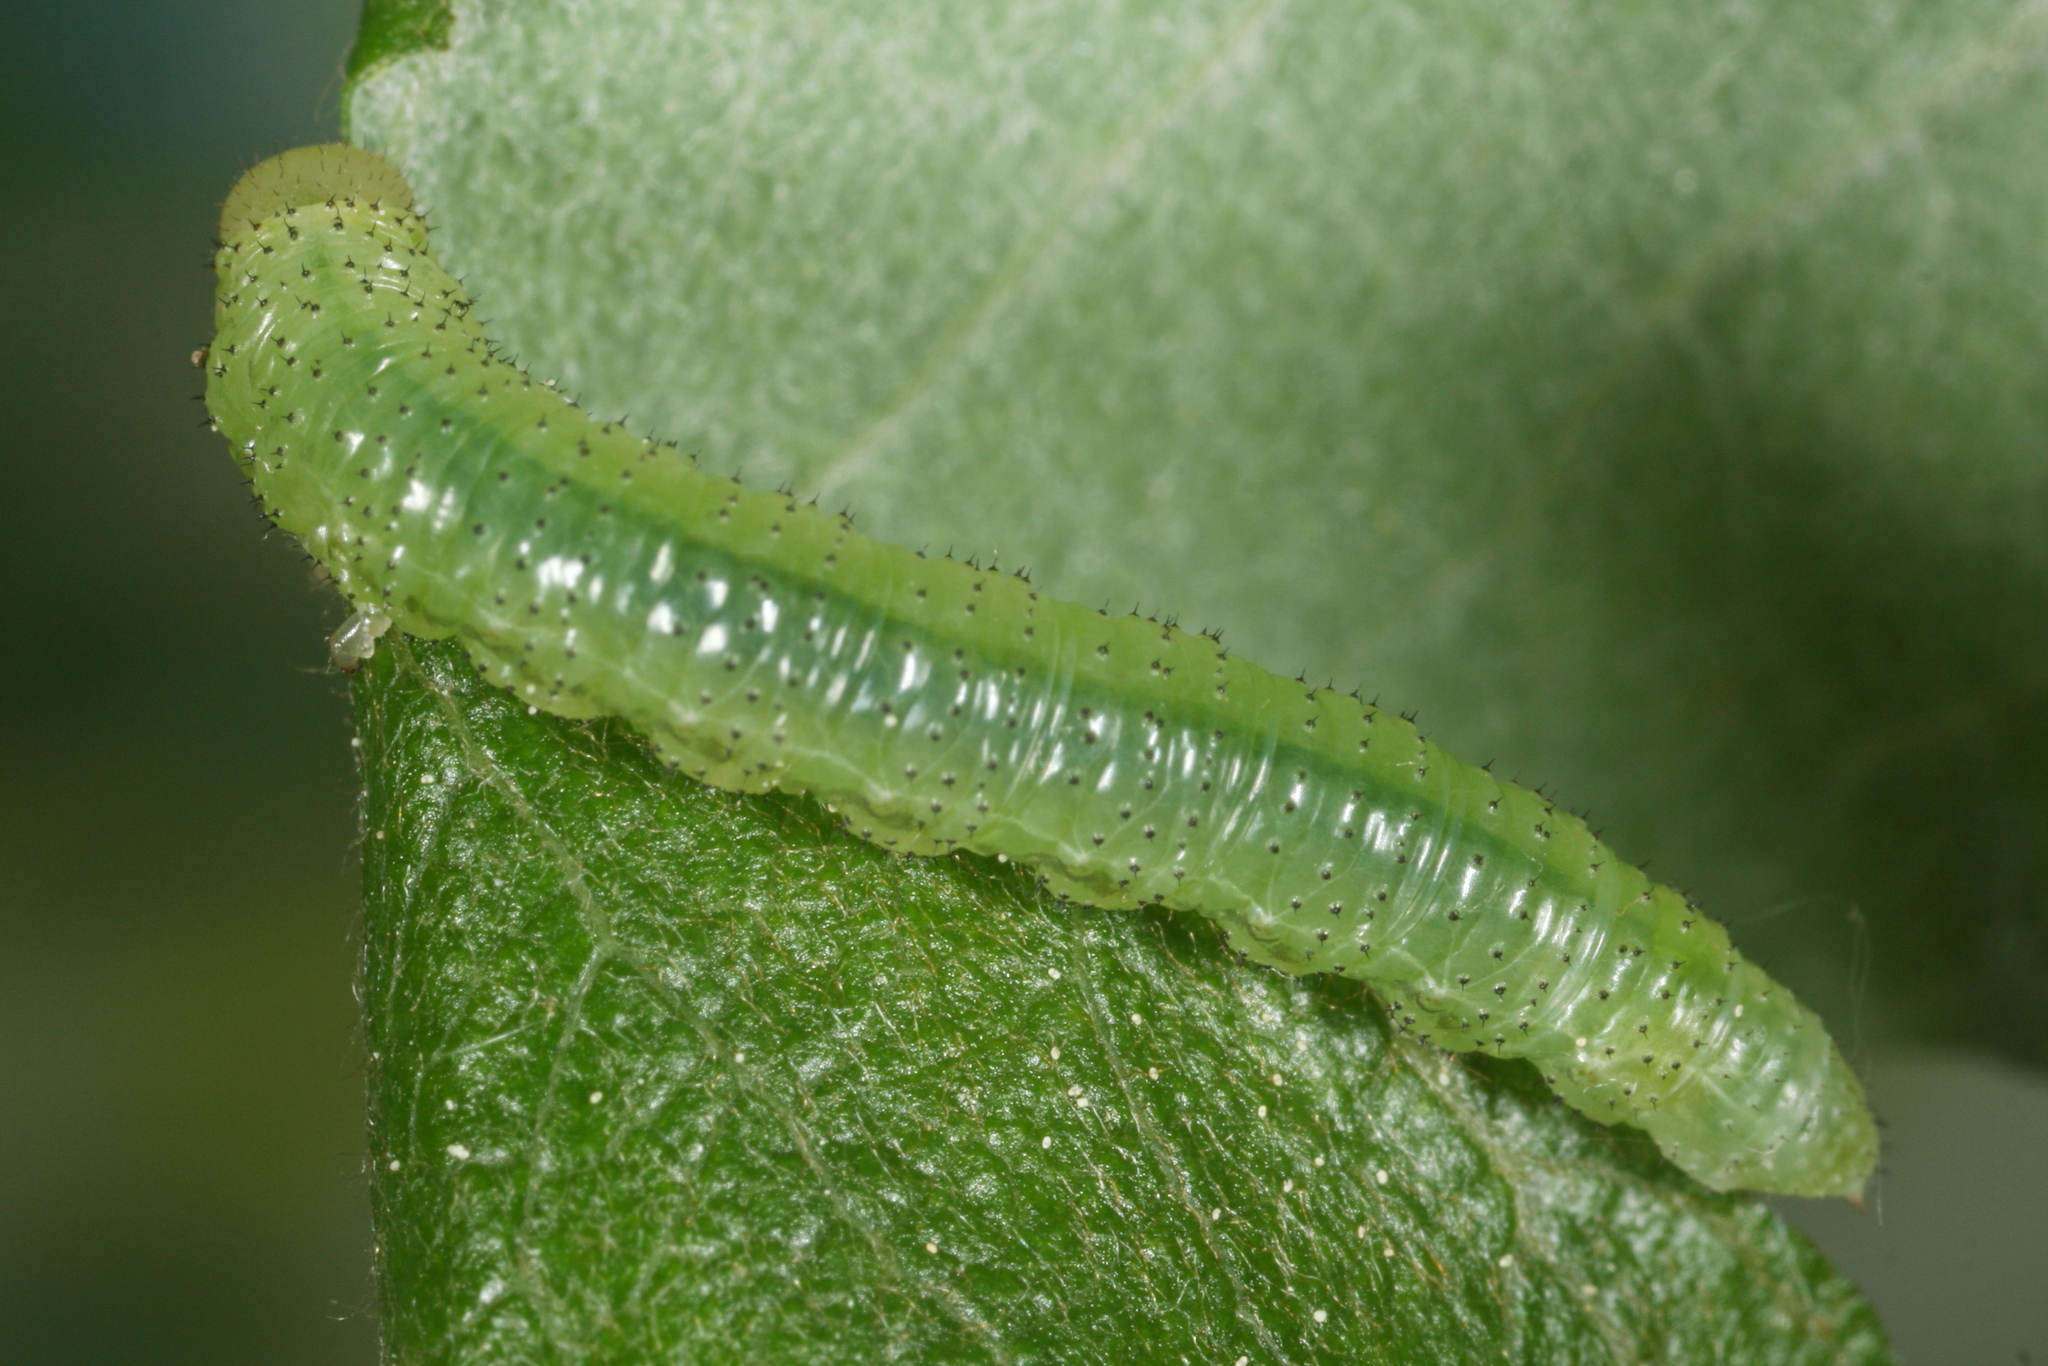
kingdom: Animalia
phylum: Arthropoda
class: Insecta
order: Hymenoptera
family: Tenthredinidae
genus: Amauronematus
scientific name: Amauronematus humeralis
